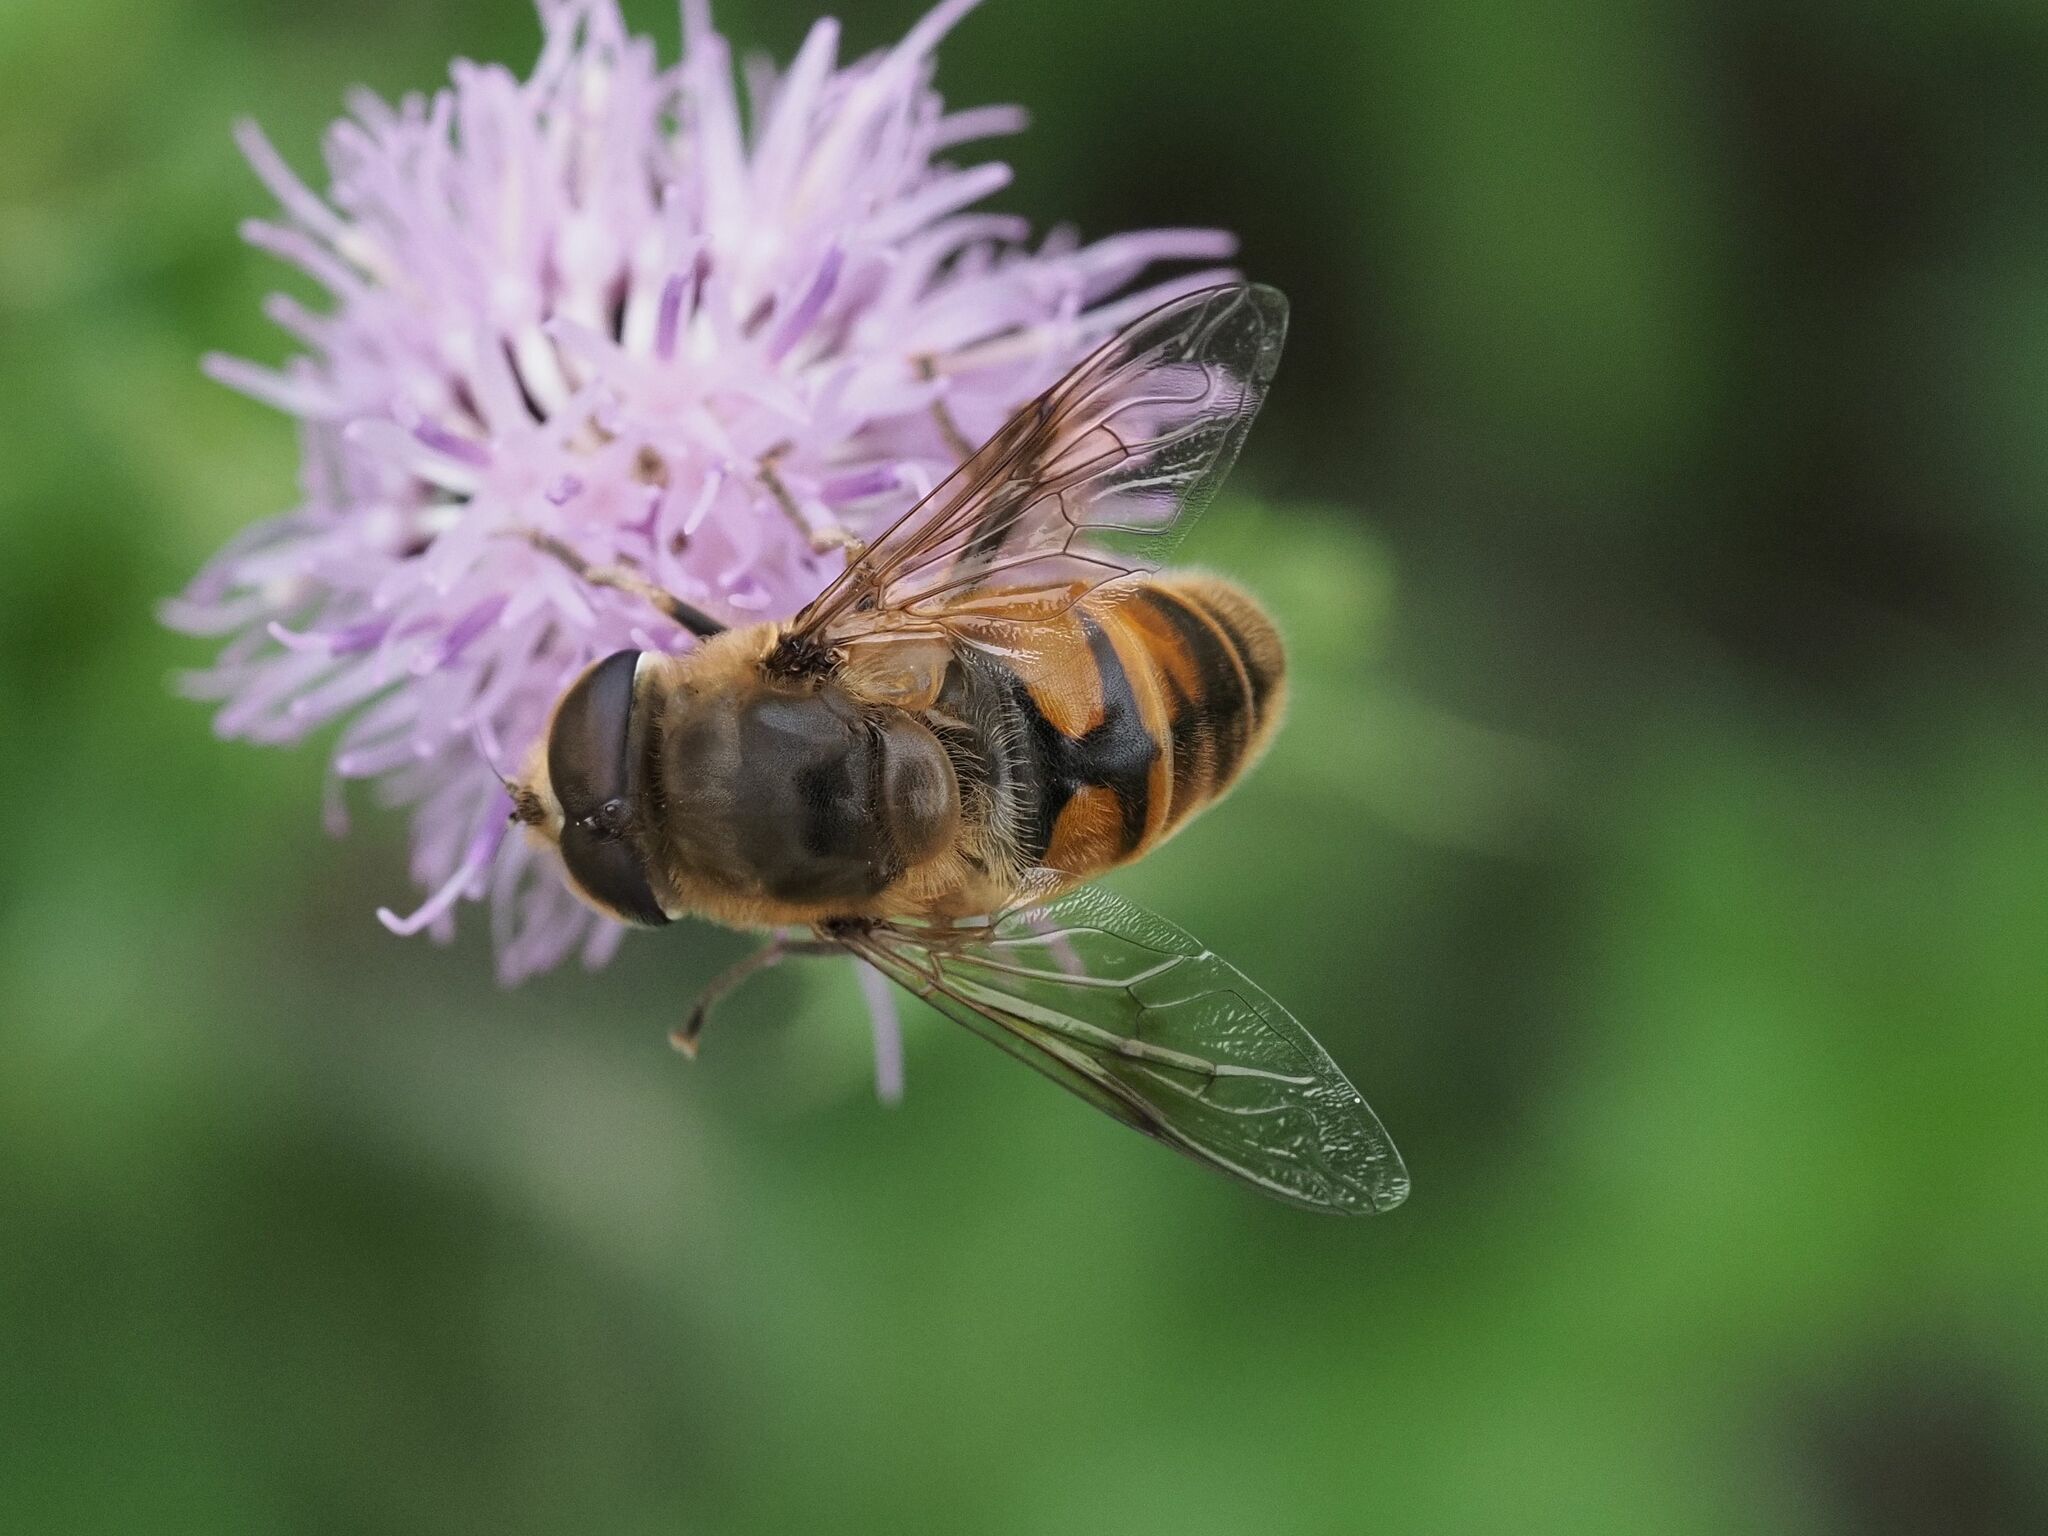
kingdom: Animalia
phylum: Arthropoda
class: Insecta
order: Diptera
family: Syrphidae
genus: Eristalis
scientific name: Eristalis tenax
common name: Drone fly
